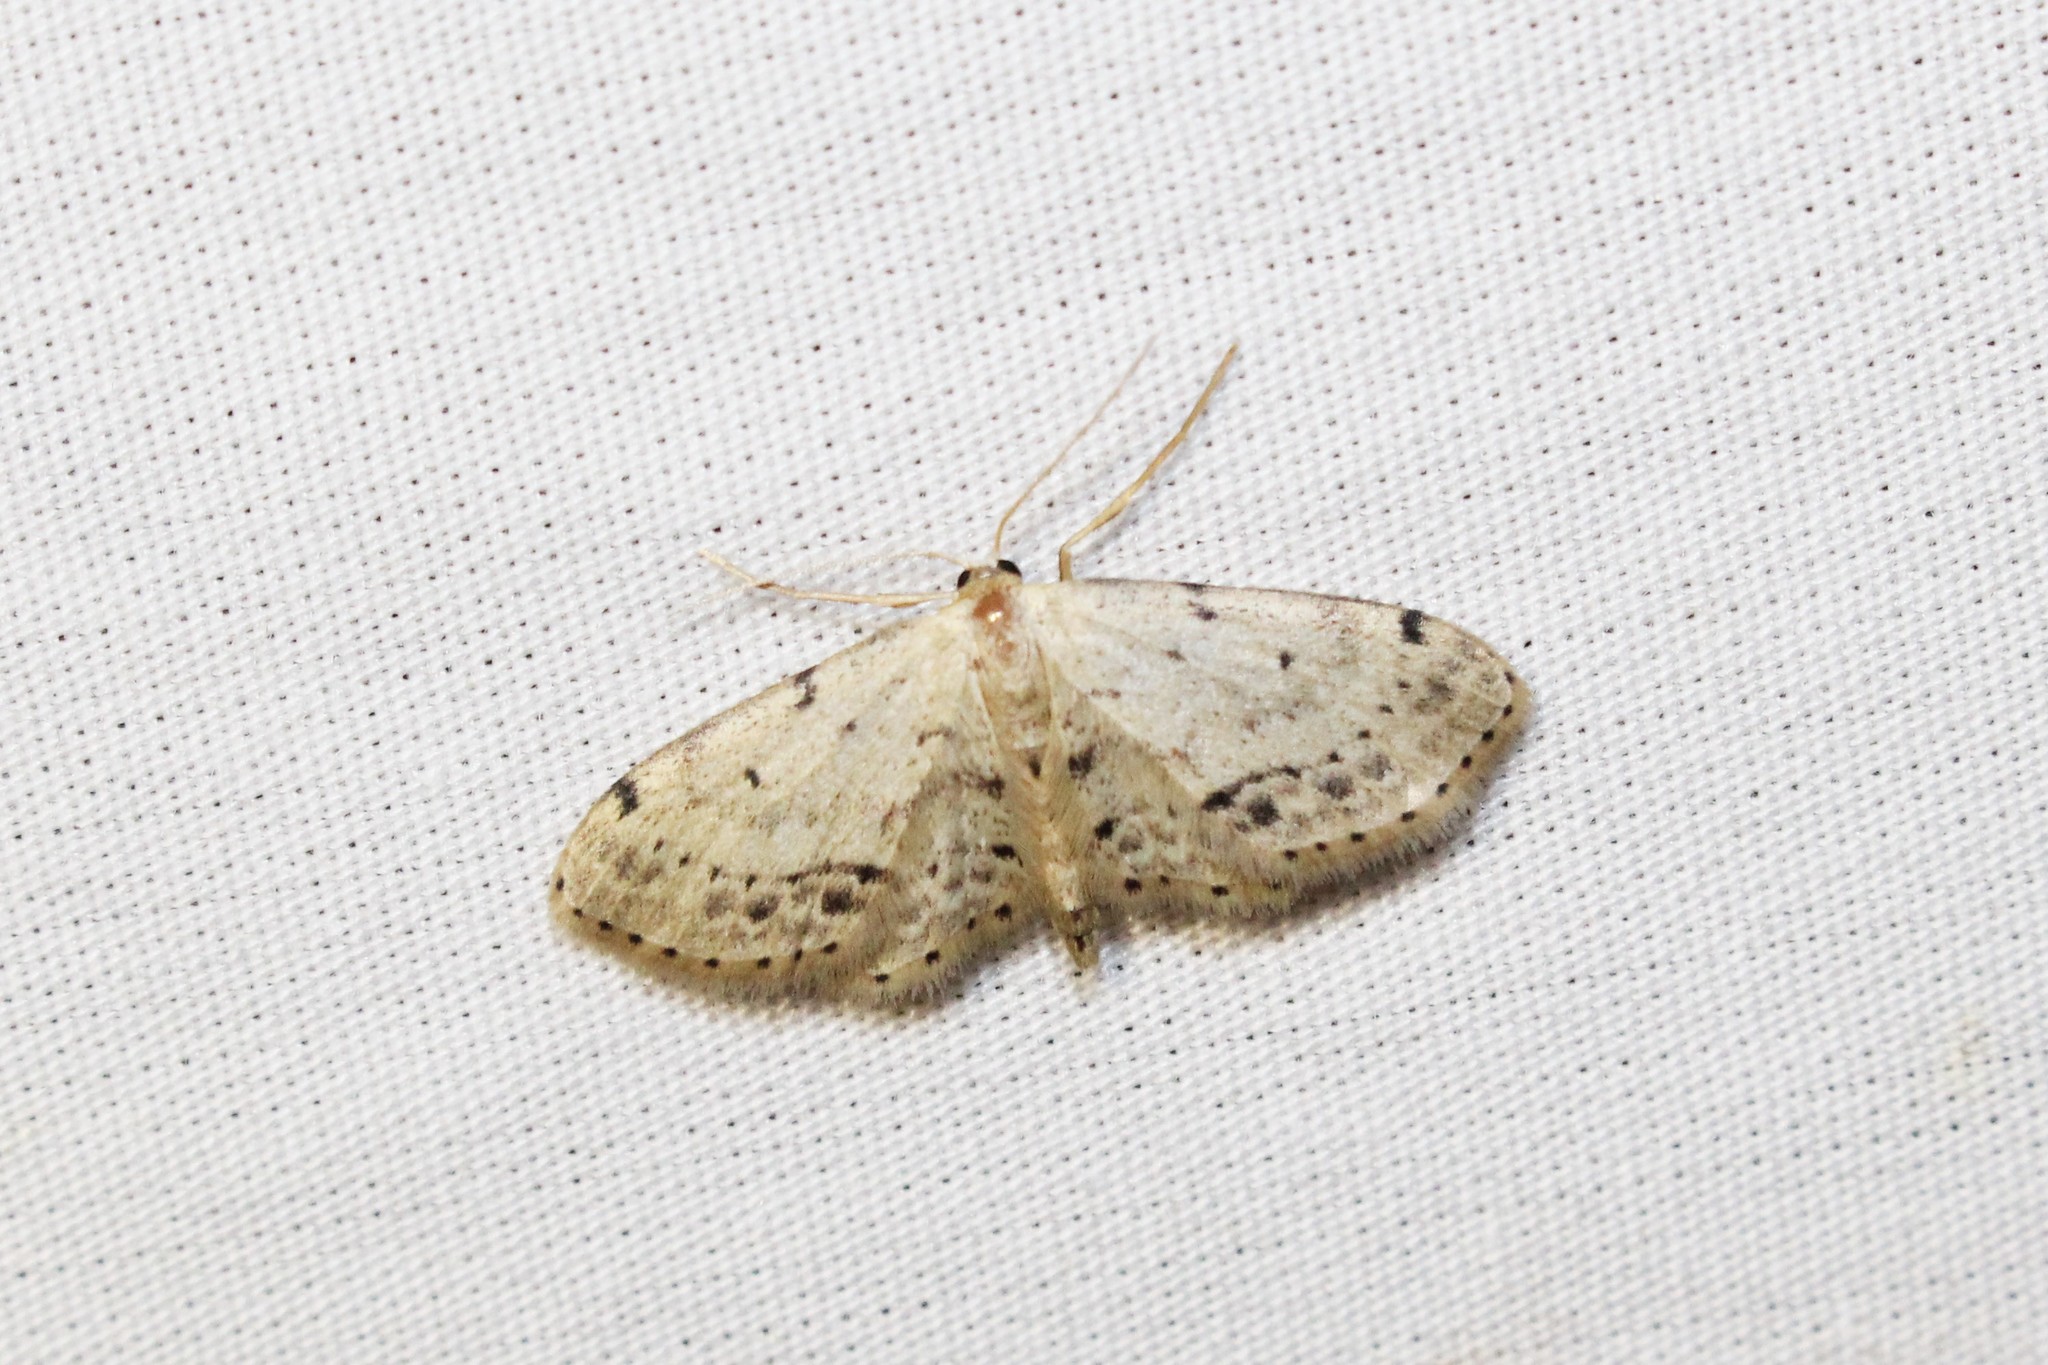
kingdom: Animalia
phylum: Arthropoda
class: Insecta
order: Lepidoptera
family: Geometridae
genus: Idaea
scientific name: Idaea dimidiata
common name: Single-dotted wave
